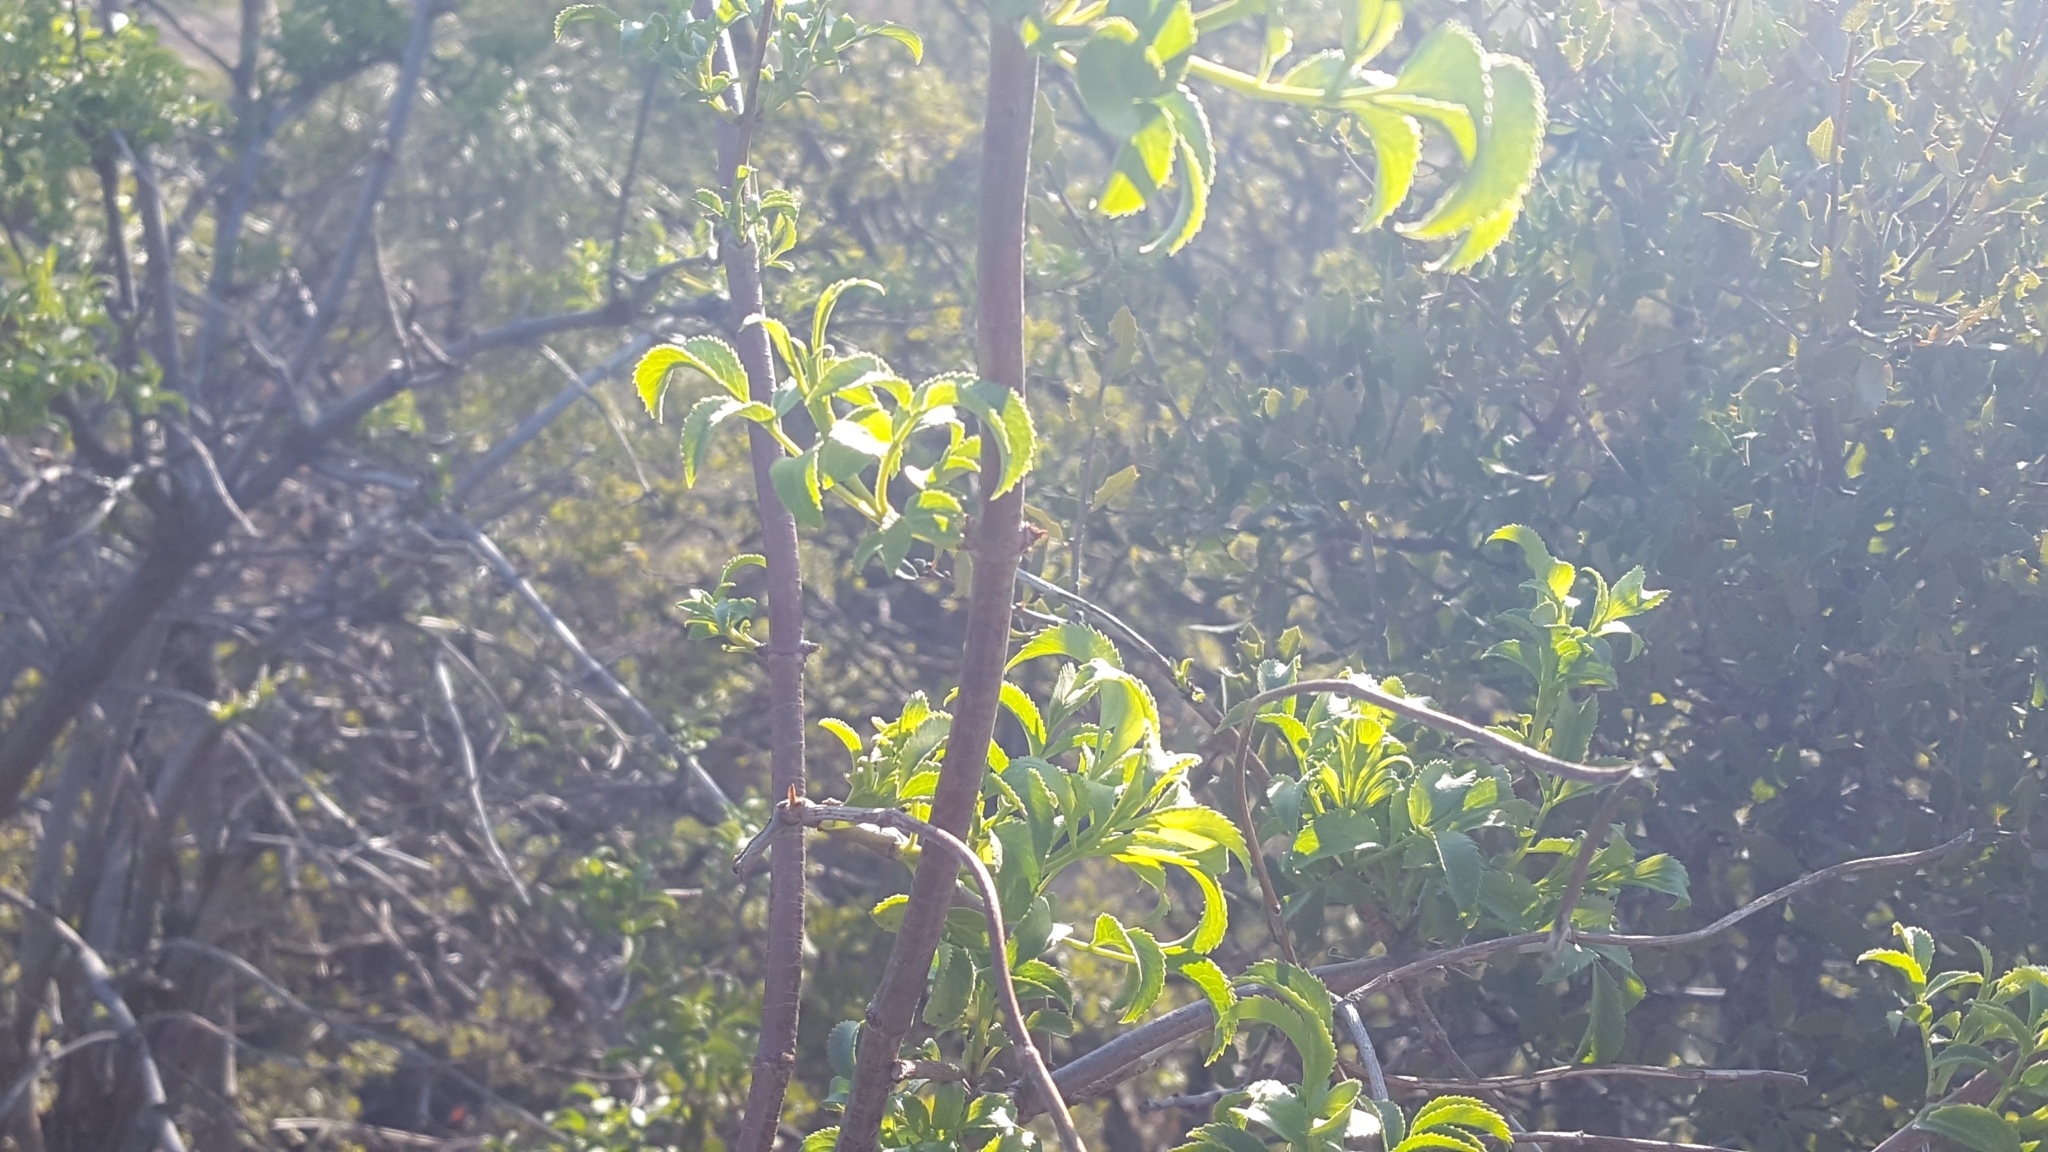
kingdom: Plantae
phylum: Tracheophyta
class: Magnoliopsida
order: Dipsacales
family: Viburnaceae
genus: Sambucus
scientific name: Sambucus cerulea
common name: Blue elder
